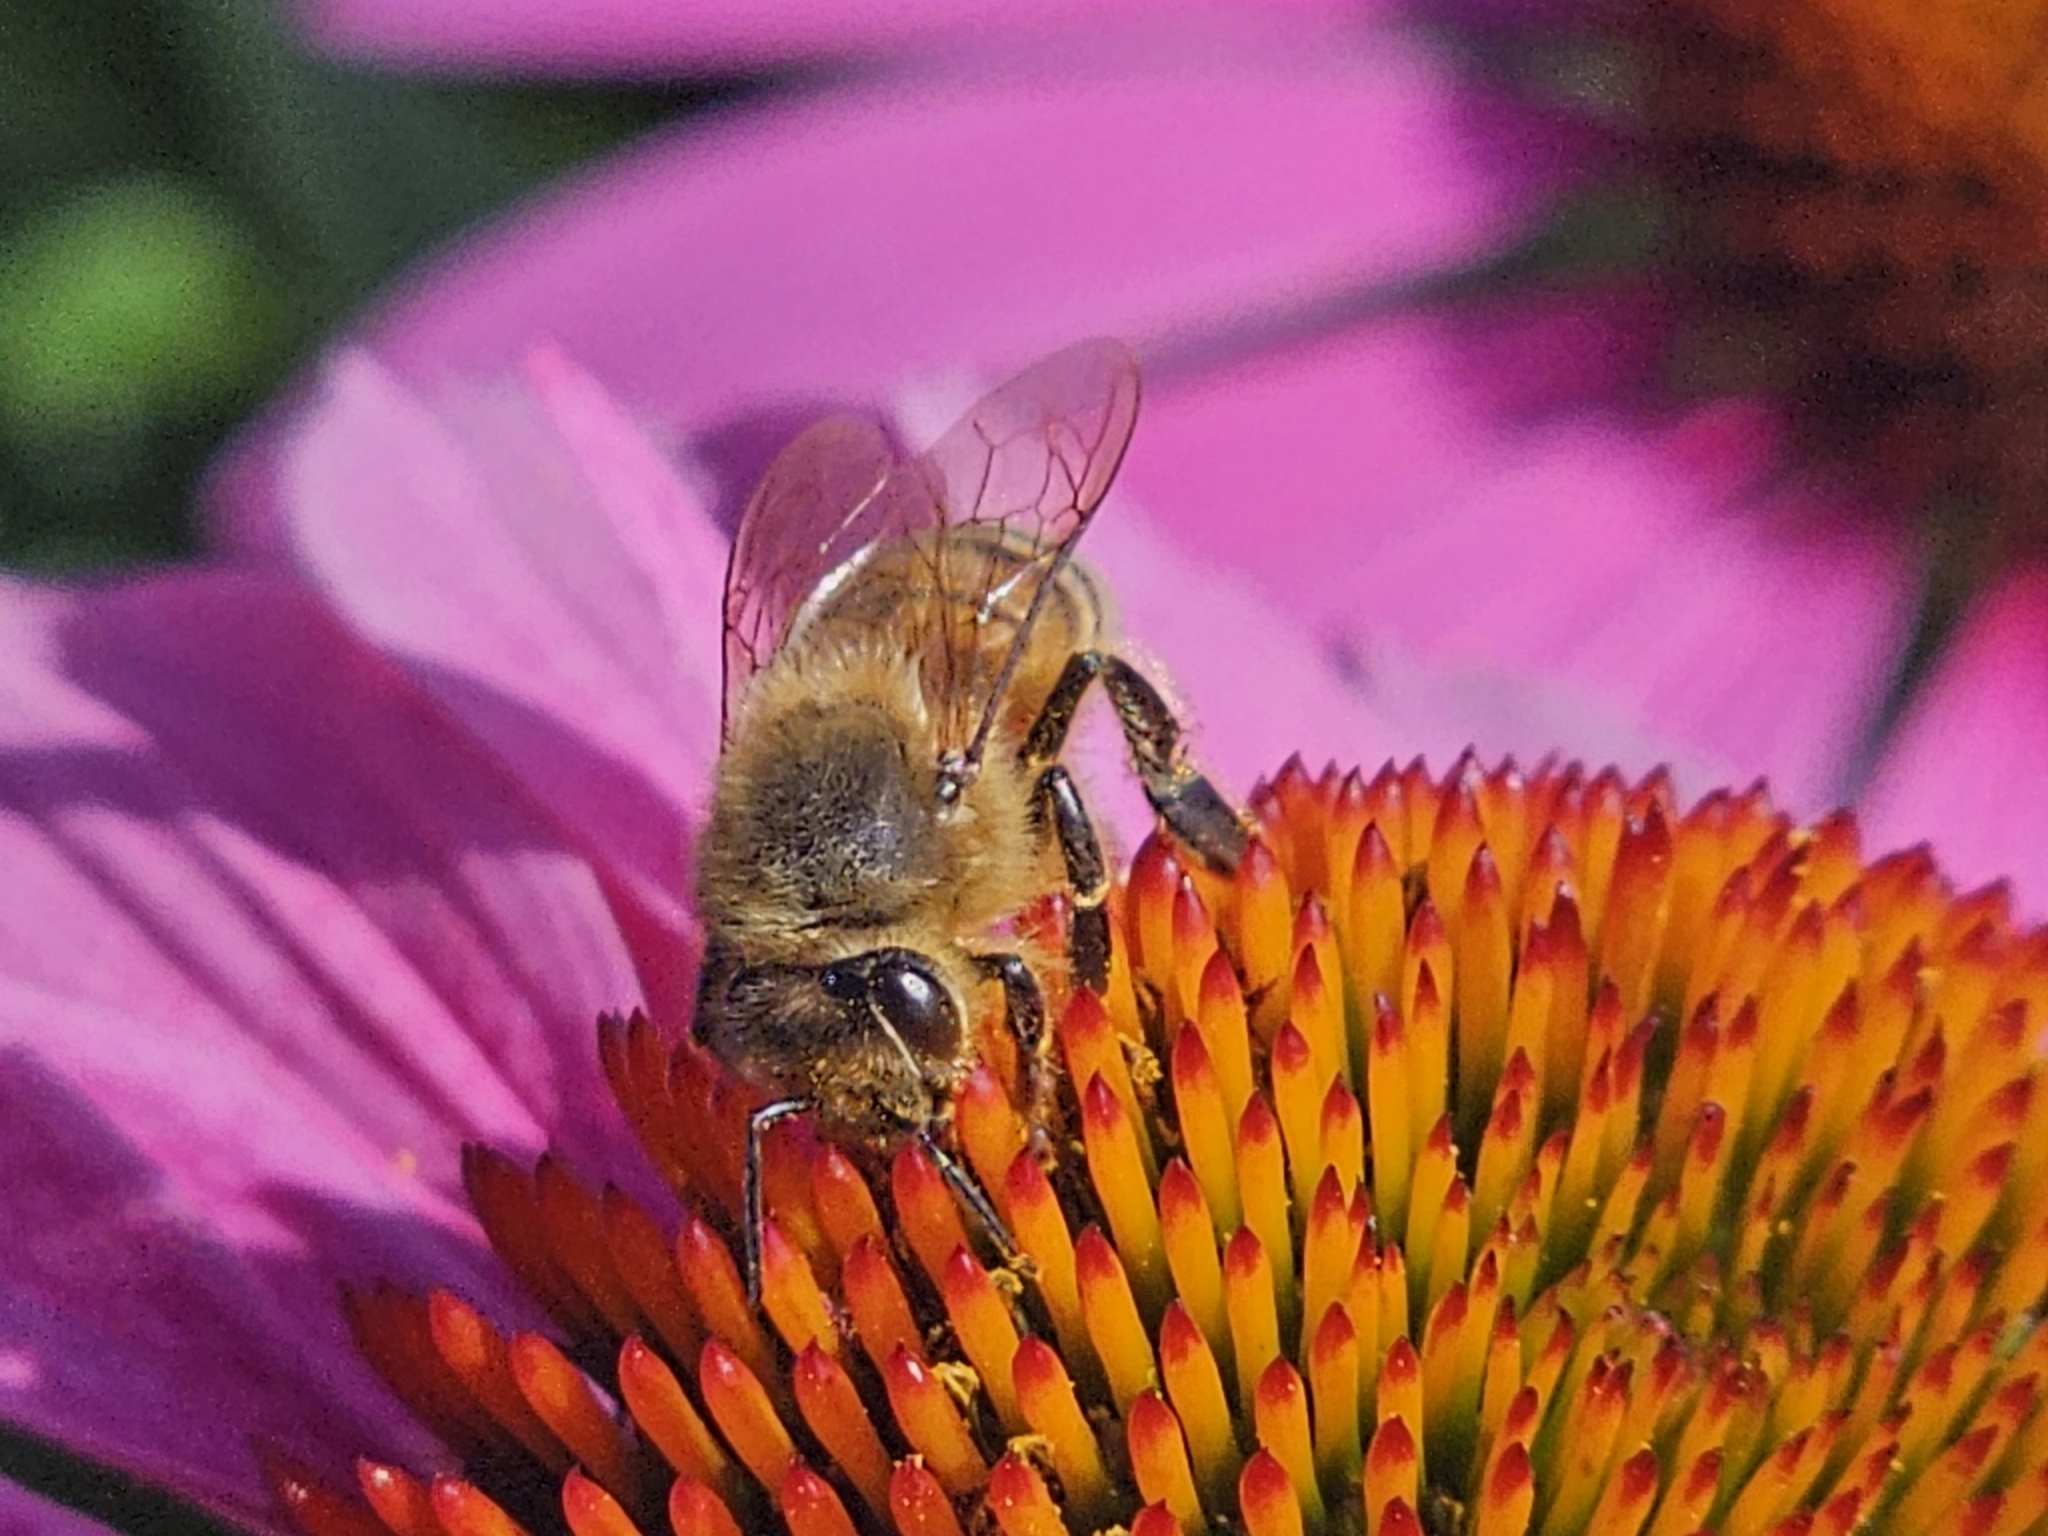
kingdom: Animalia
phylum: Arthropoda
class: Insecta
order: Hymenoptera
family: Apidae
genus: Apis
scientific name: Apis mellifera
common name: Honey bee
